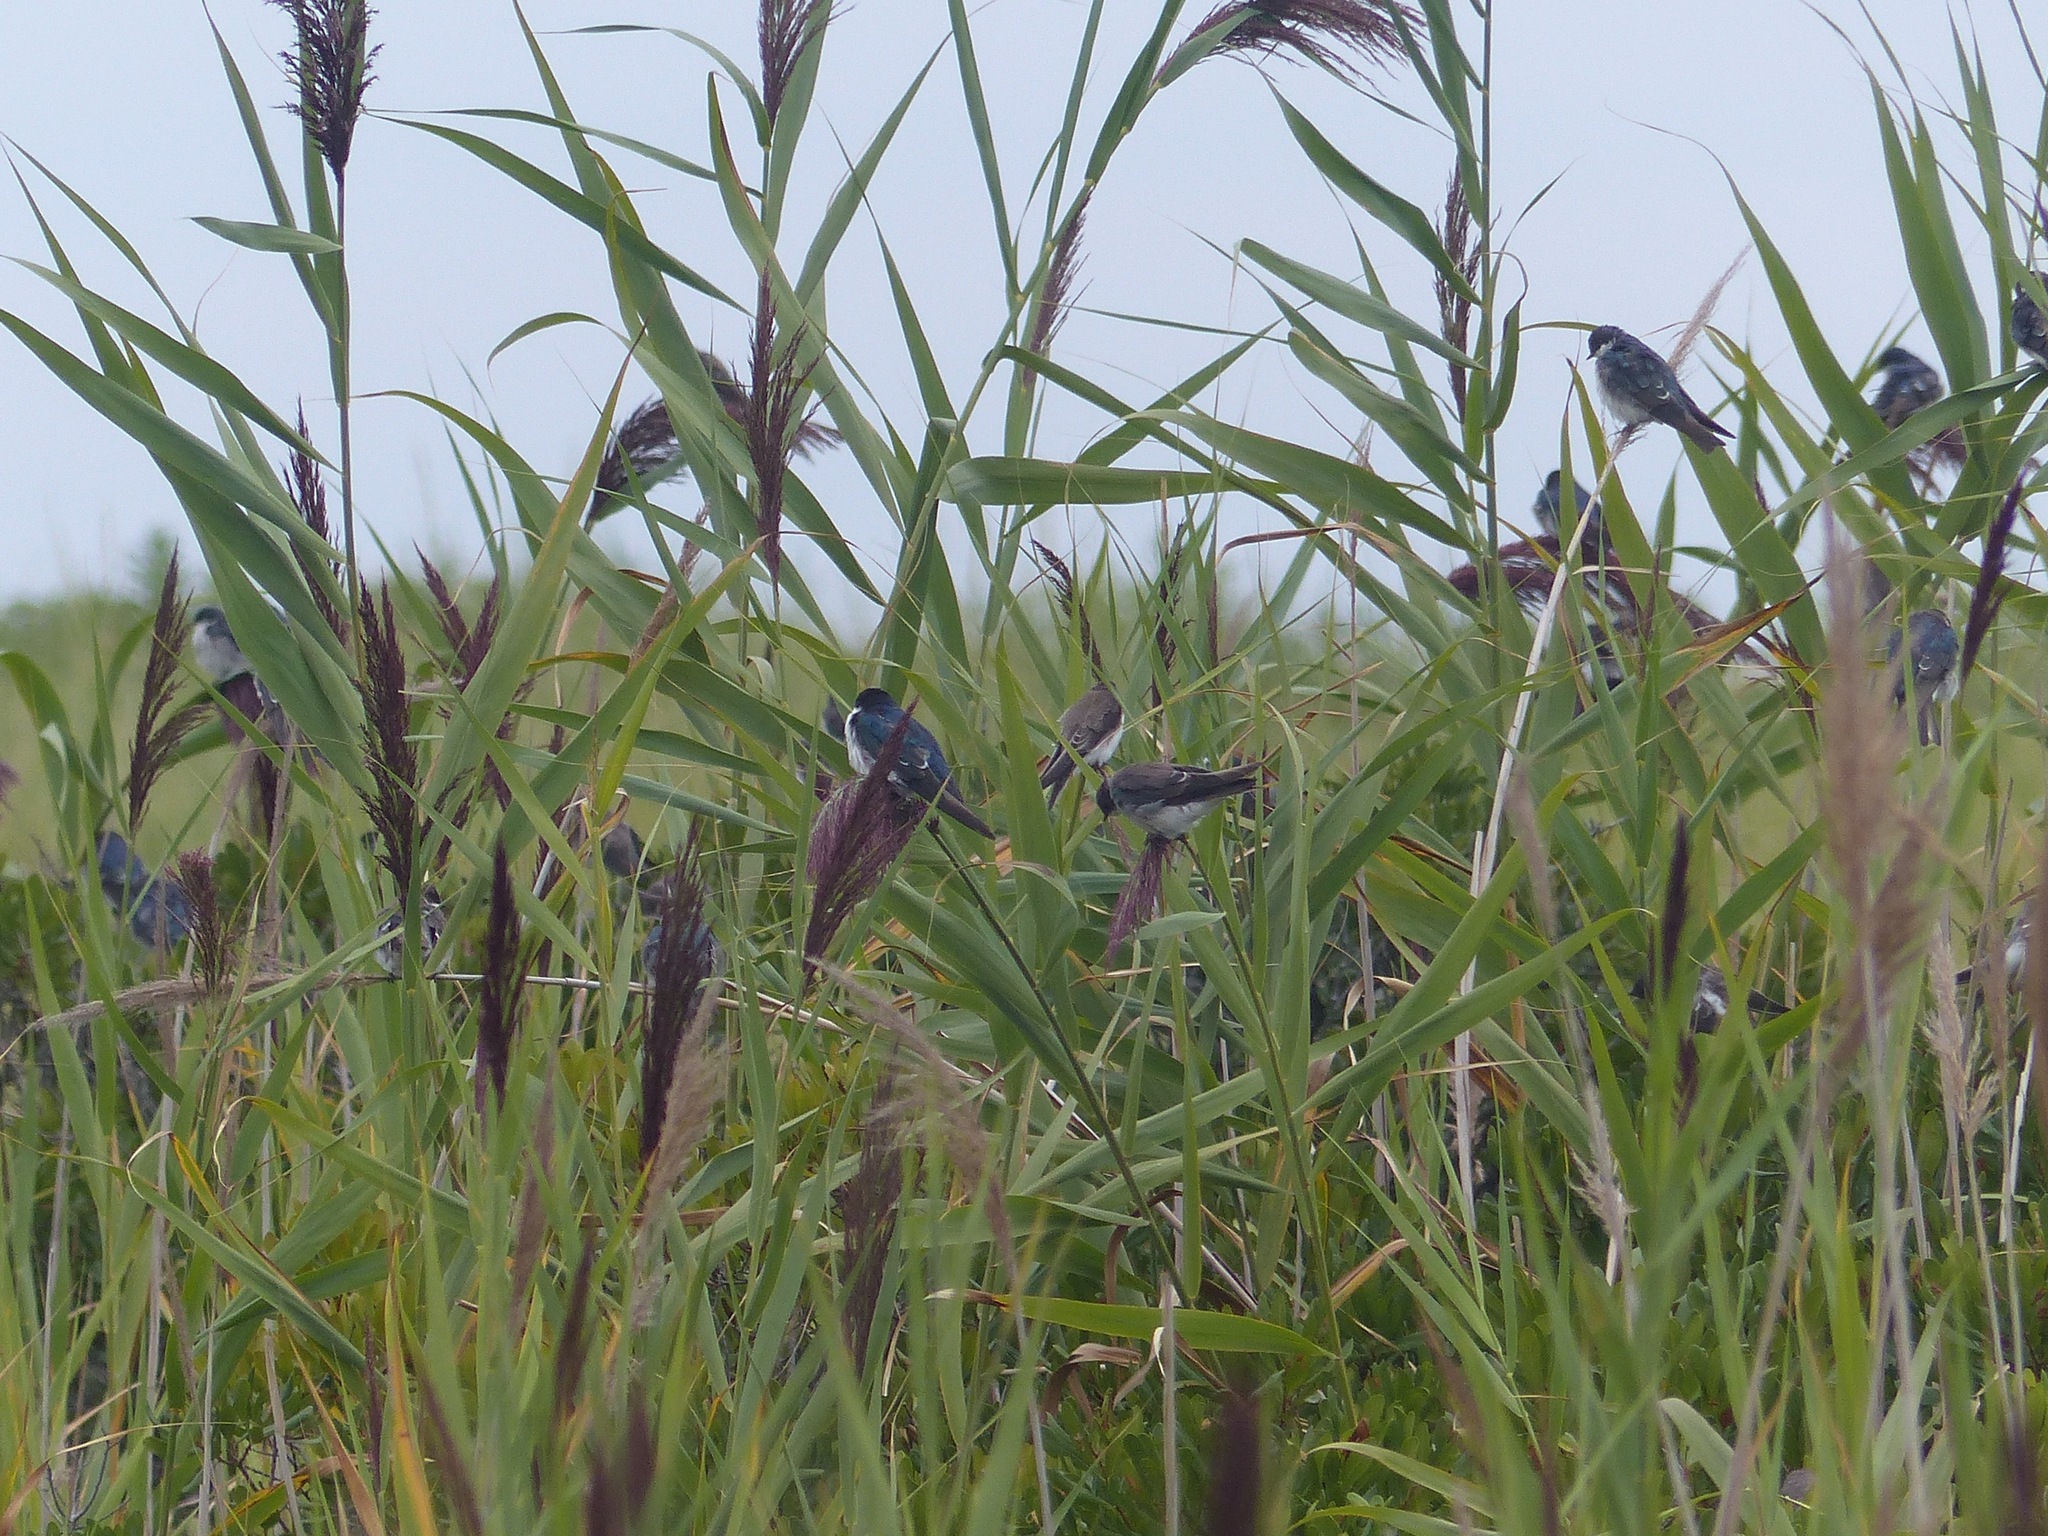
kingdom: Animalia
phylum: Chordata
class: Aves
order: Passeriformes
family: Hirundinidae
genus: Tachycineta
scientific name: Tachycineta bicolor
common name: Tree swallow
